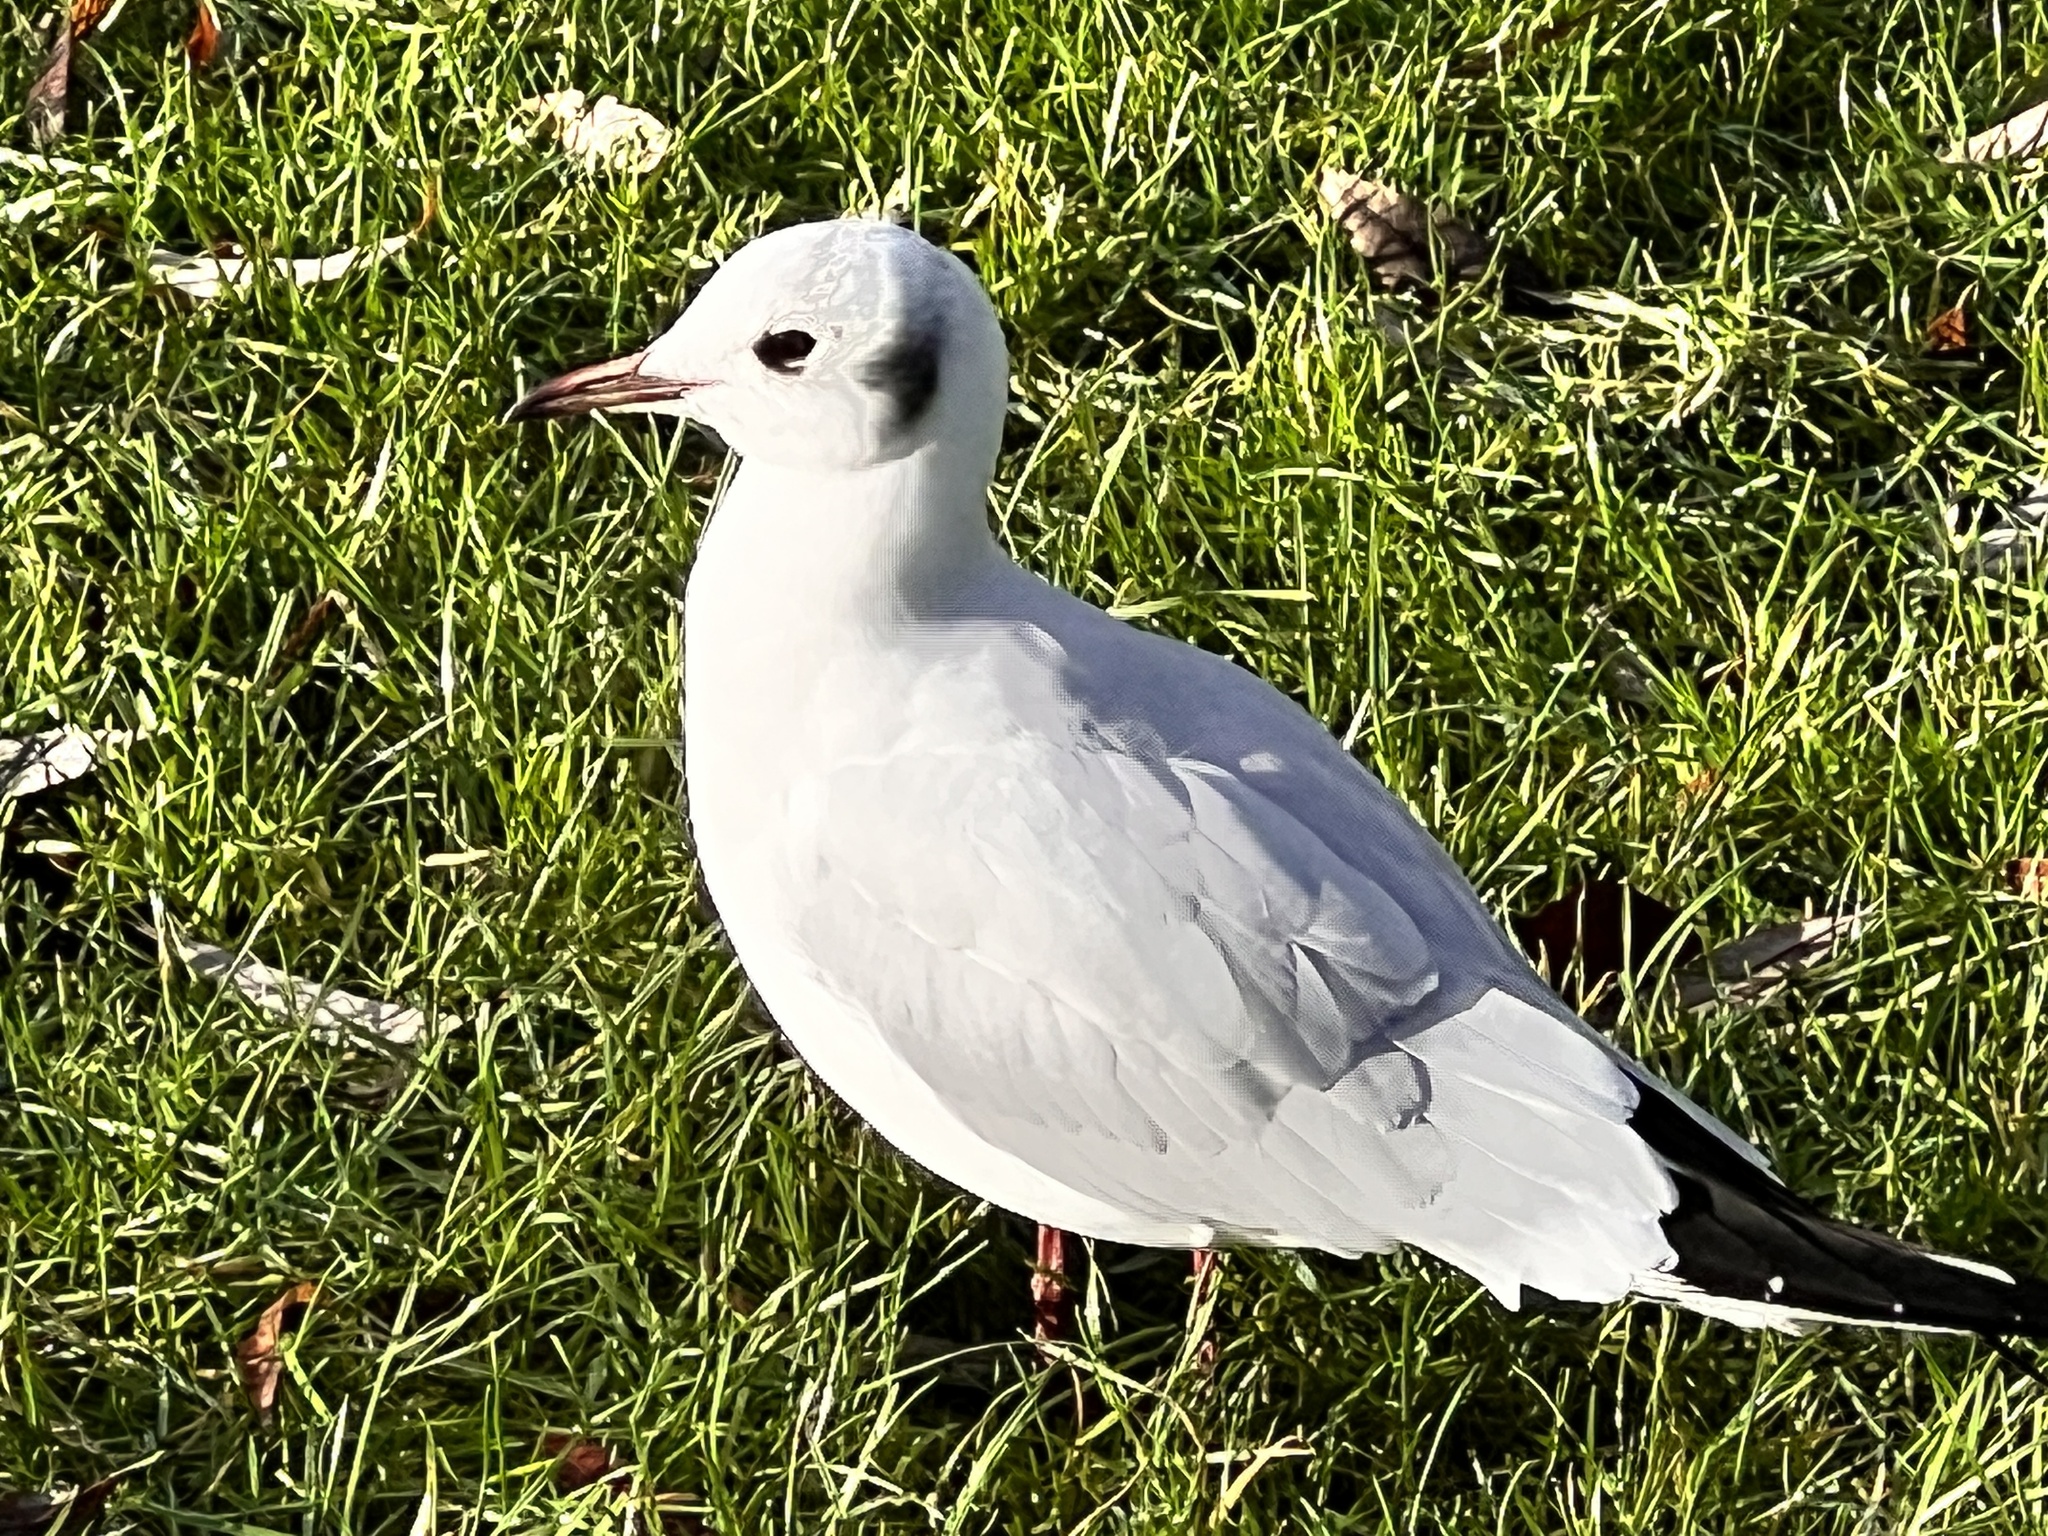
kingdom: Animalia
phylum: Chordata
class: Aves
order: Charadriiformes
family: Laridae
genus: Chroicocephalus
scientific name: Chroicocephalus ridibundus
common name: Black-headed gull
